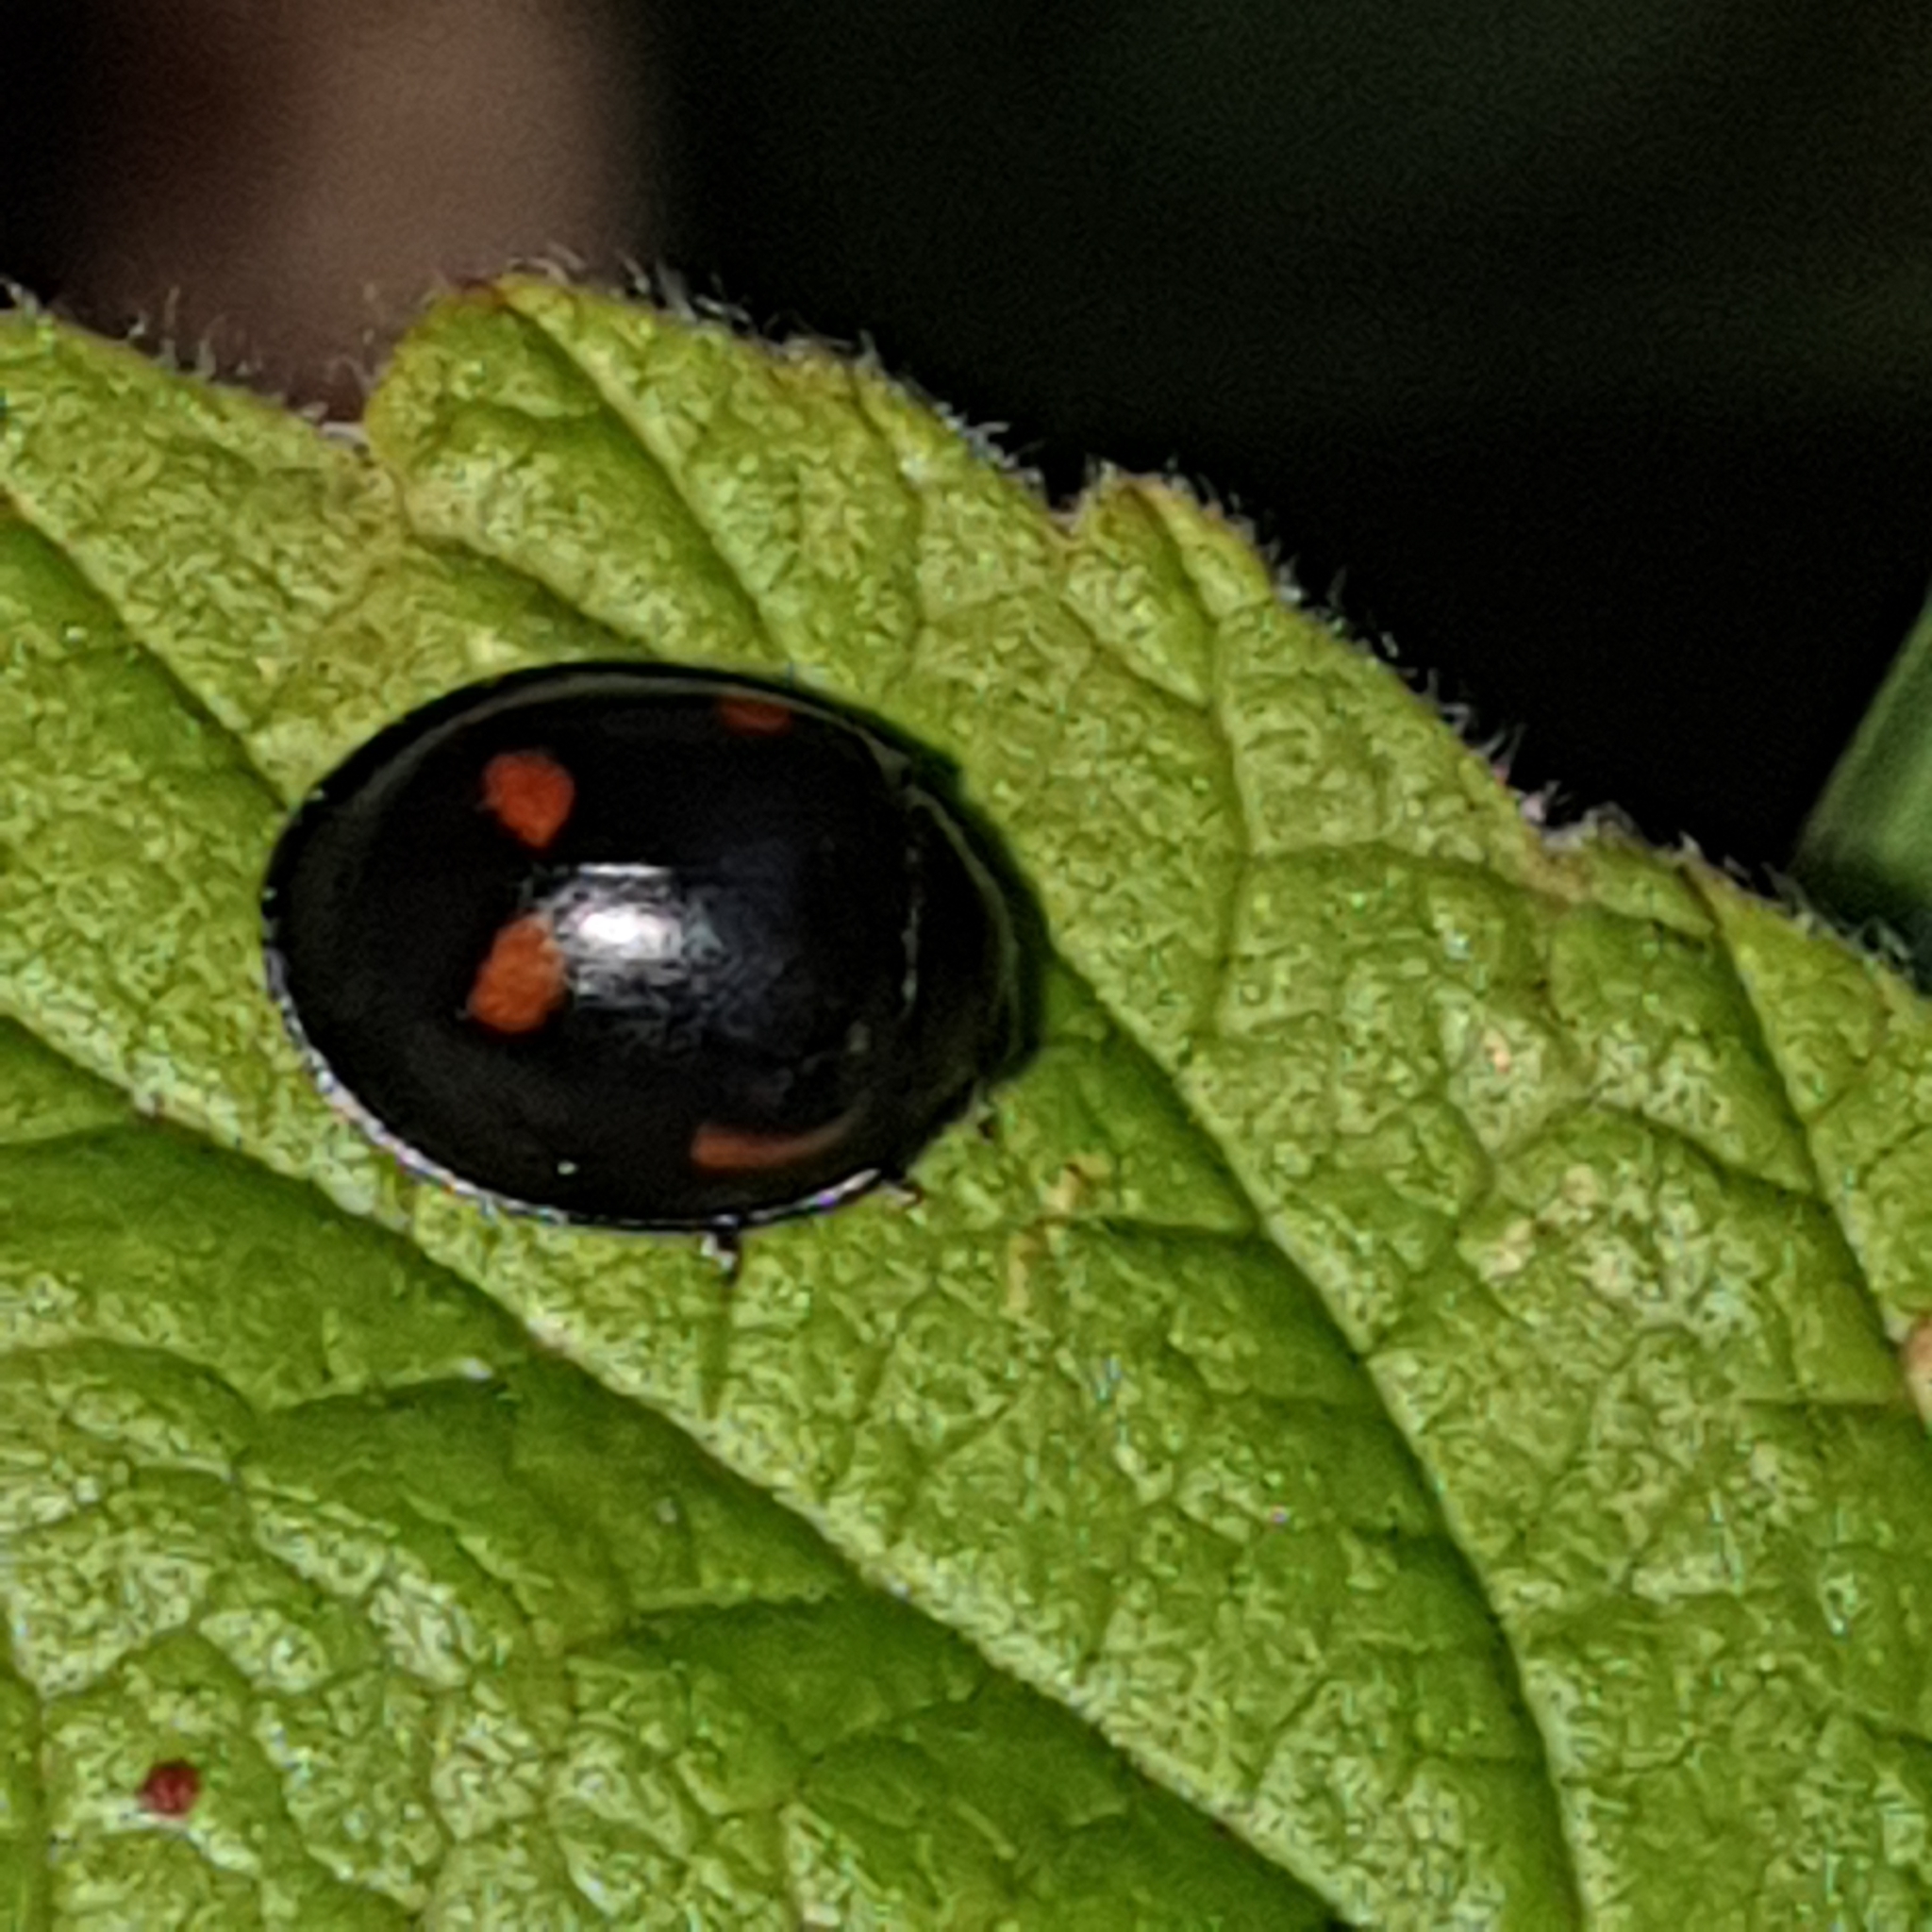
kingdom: Animalia
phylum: Arthropoda
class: Insecta
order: Coleoptera
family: Coccinellidae
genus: Brumus
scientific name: Brumus quadripustulatus
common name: Ladybird beetle
